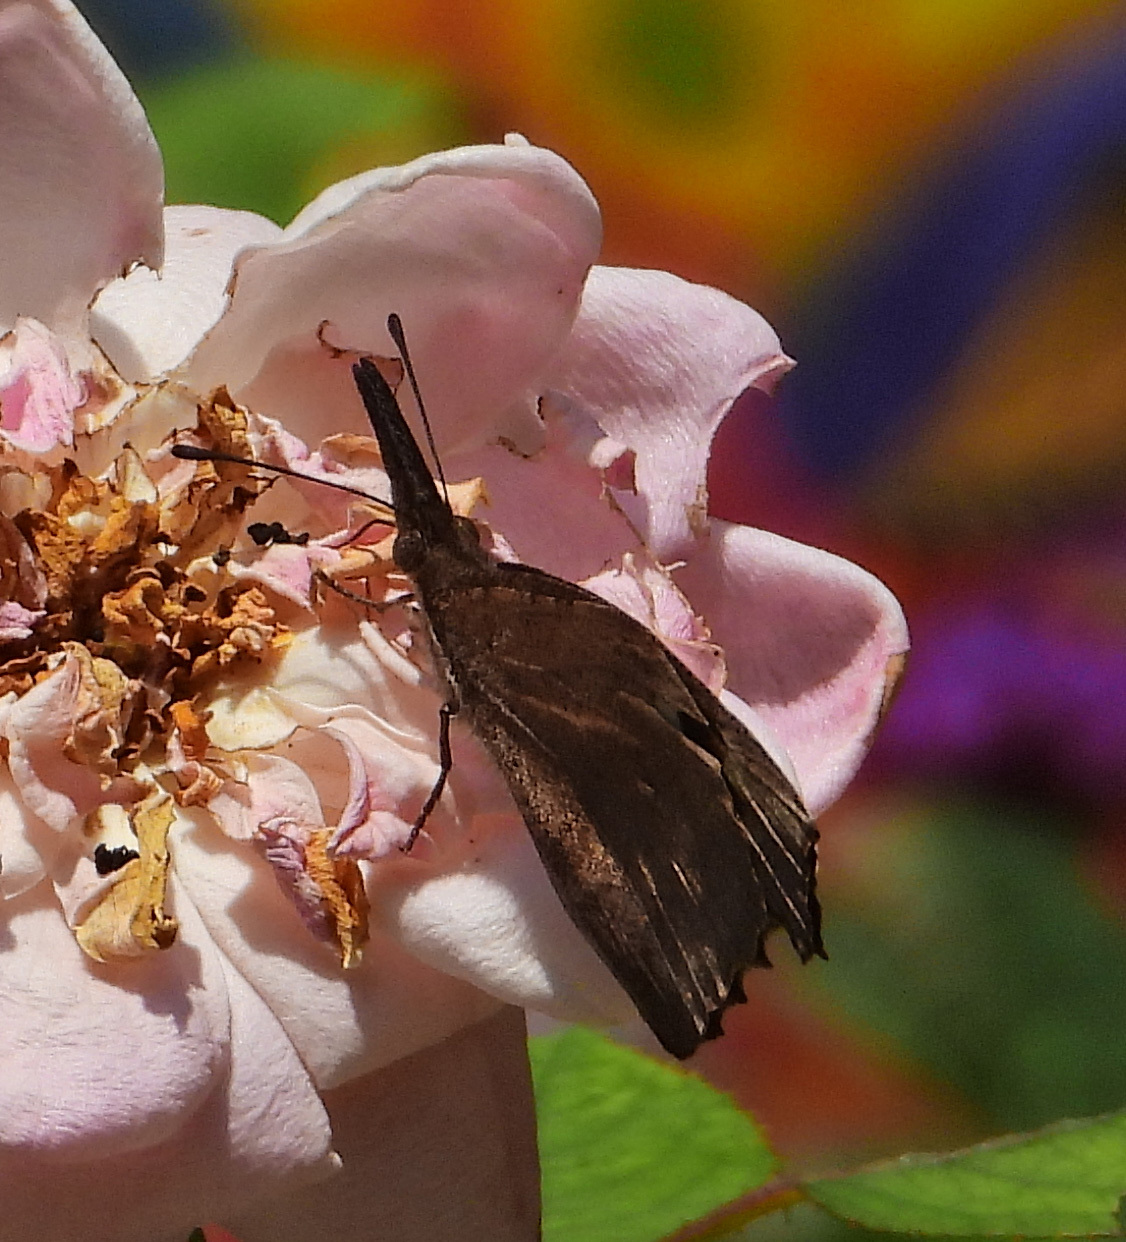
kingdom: Animalia
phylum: Arthropoda
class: Insecta
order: Lepidoptera
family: Nymphalidae
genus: Libytheana
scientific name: Libytheana carinenta
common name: American snout
